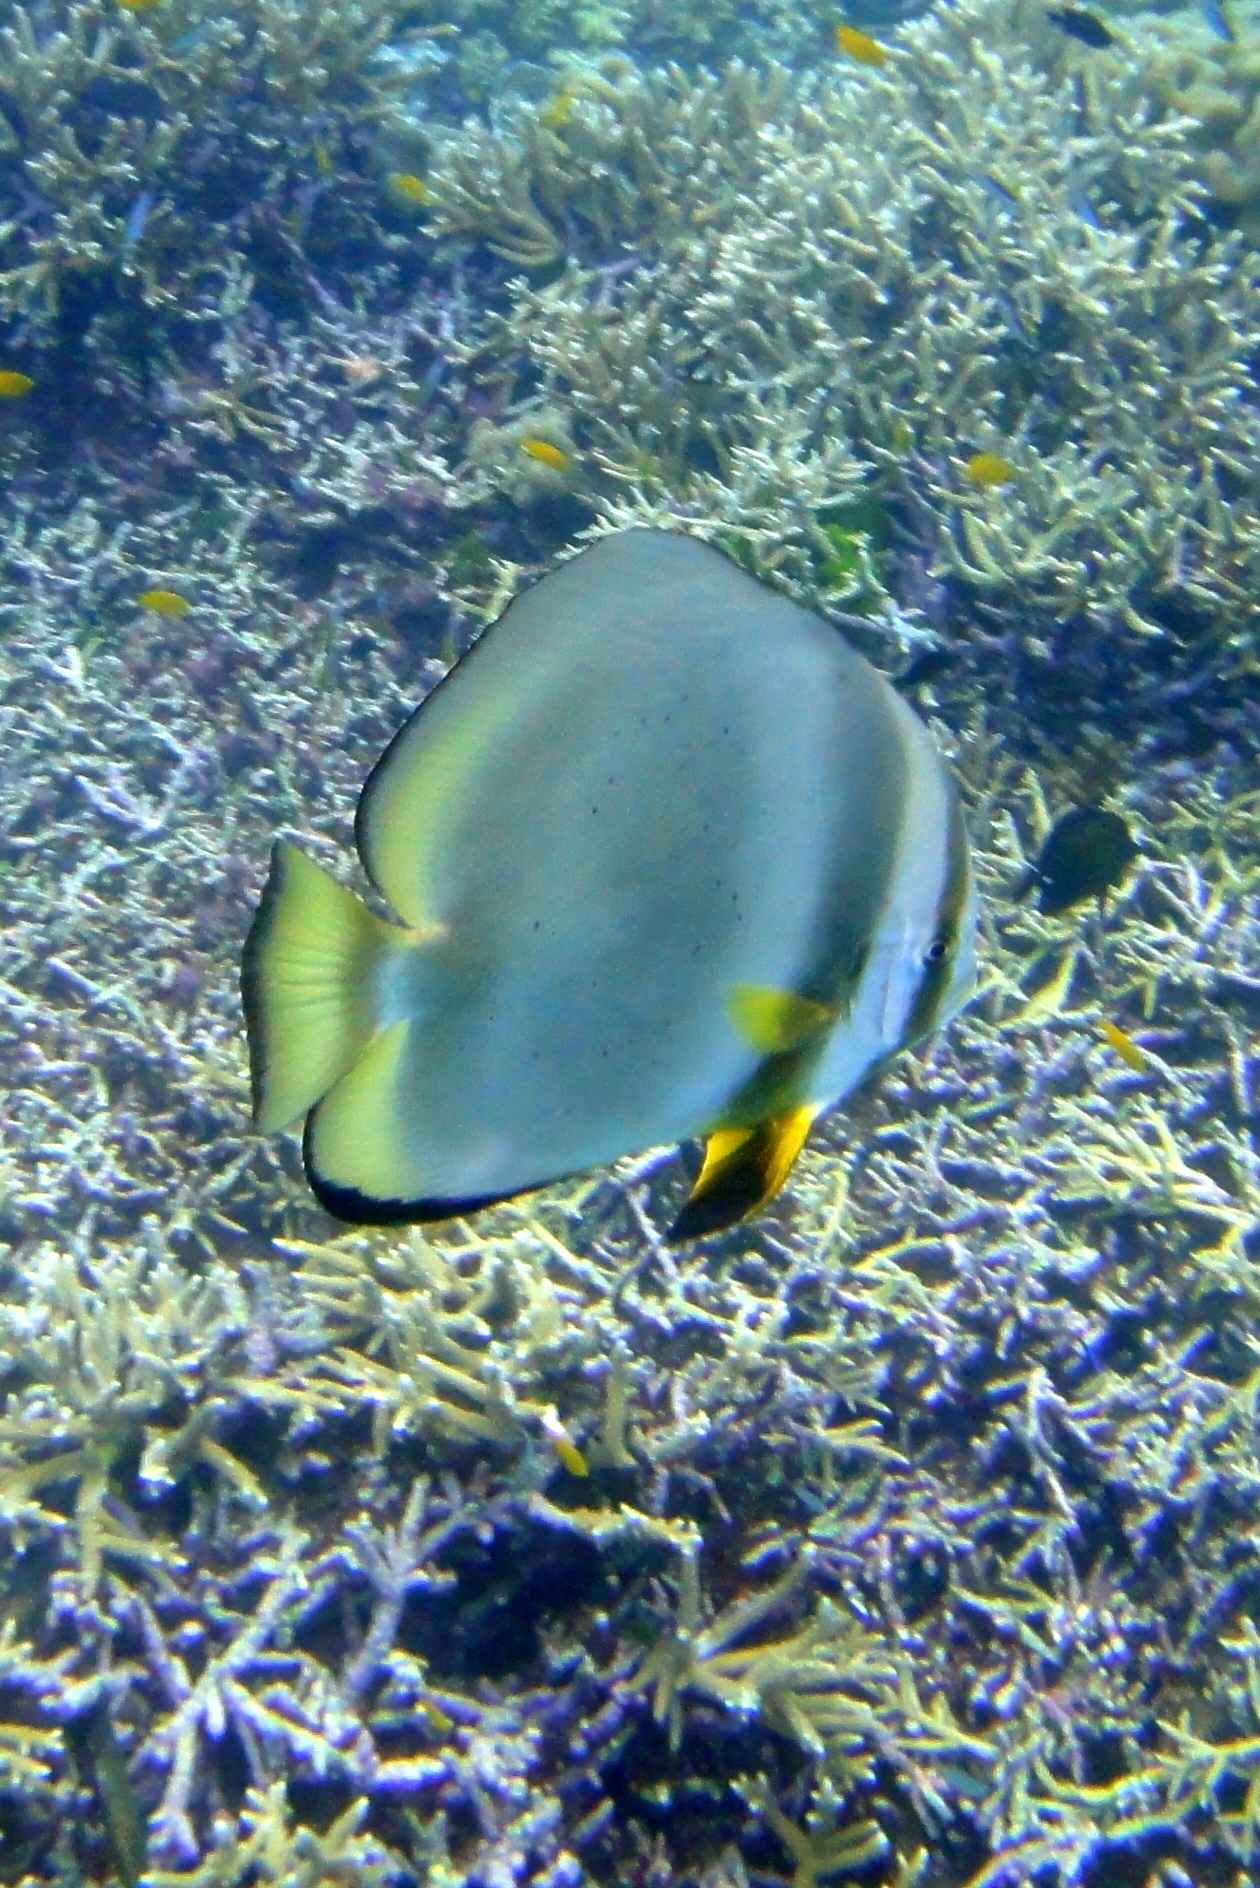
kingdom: Animalia
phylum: Chordata
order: Perciformes
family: Ephippidae
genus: Platax
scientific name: Platax orbicularis
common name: Batfish
